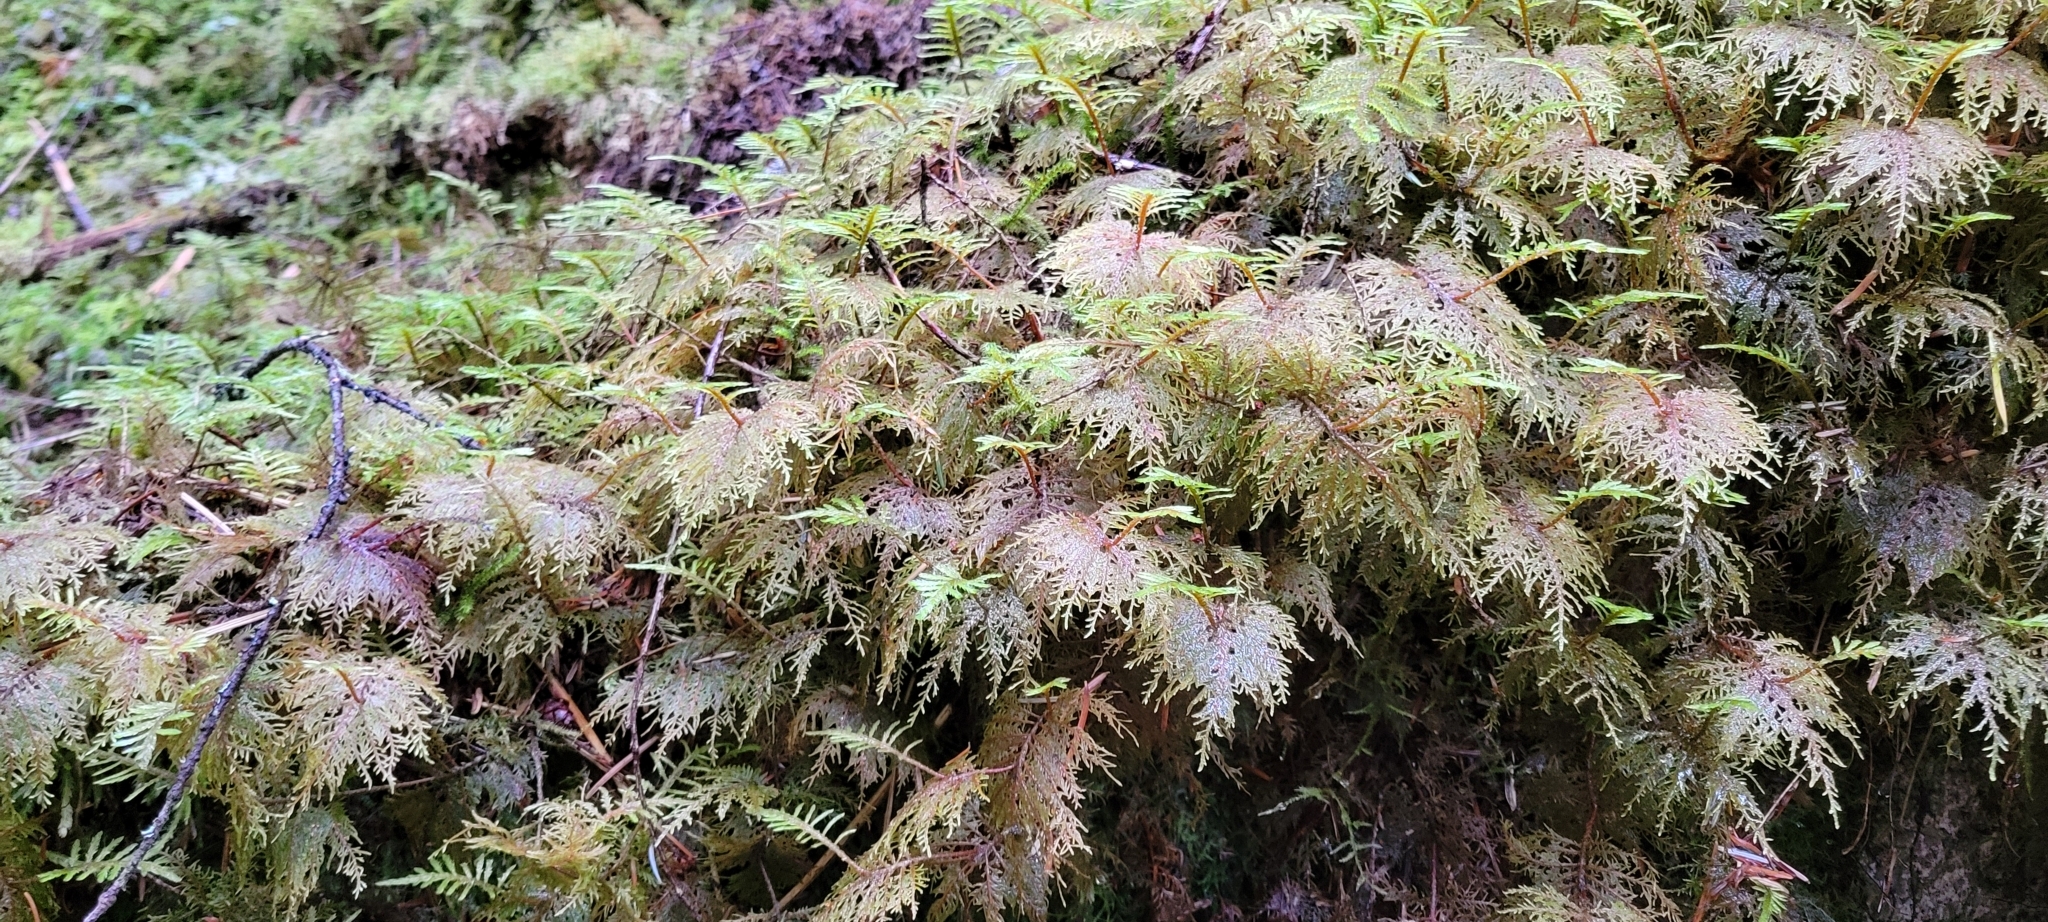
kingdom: Plantae
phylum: Bryophyta
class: Bryopsida
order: Hypnales
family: Hylocomiaceae
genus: Hylocomium
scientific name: Hylocomium splendens
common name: Stairstep moss
